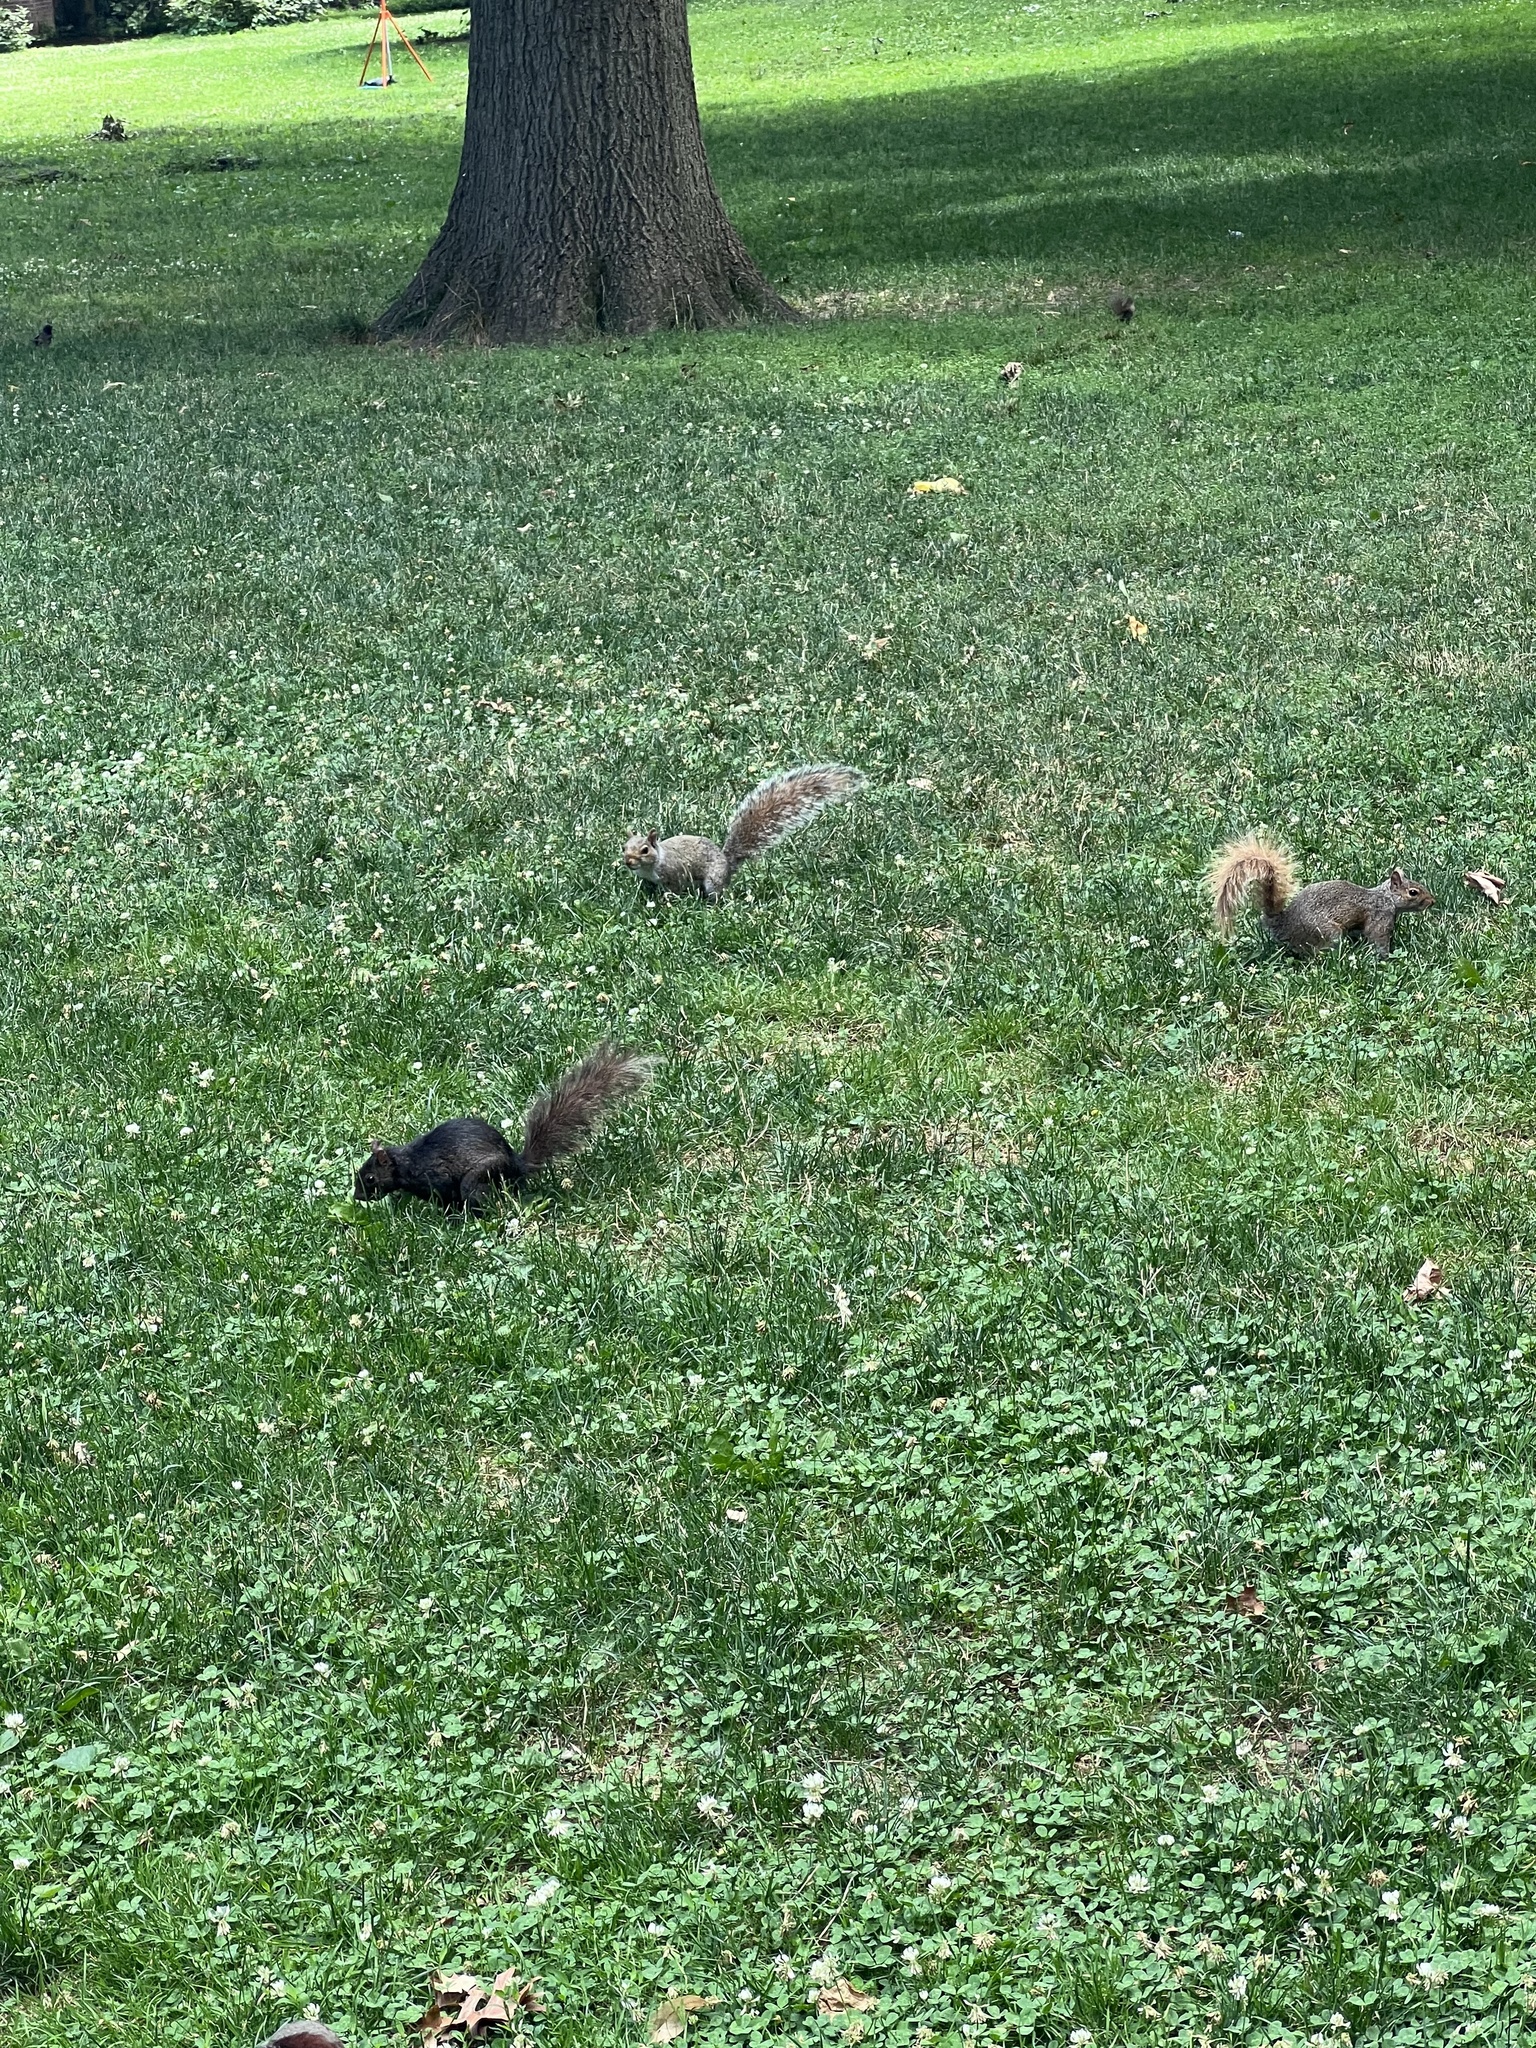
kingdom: Animalia
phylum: Chordata
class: Mammalia
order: Rodentia
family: Sciuridae
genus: Sciurus
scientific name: Sciurus carolinensis
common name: Eastern gray squirrel
